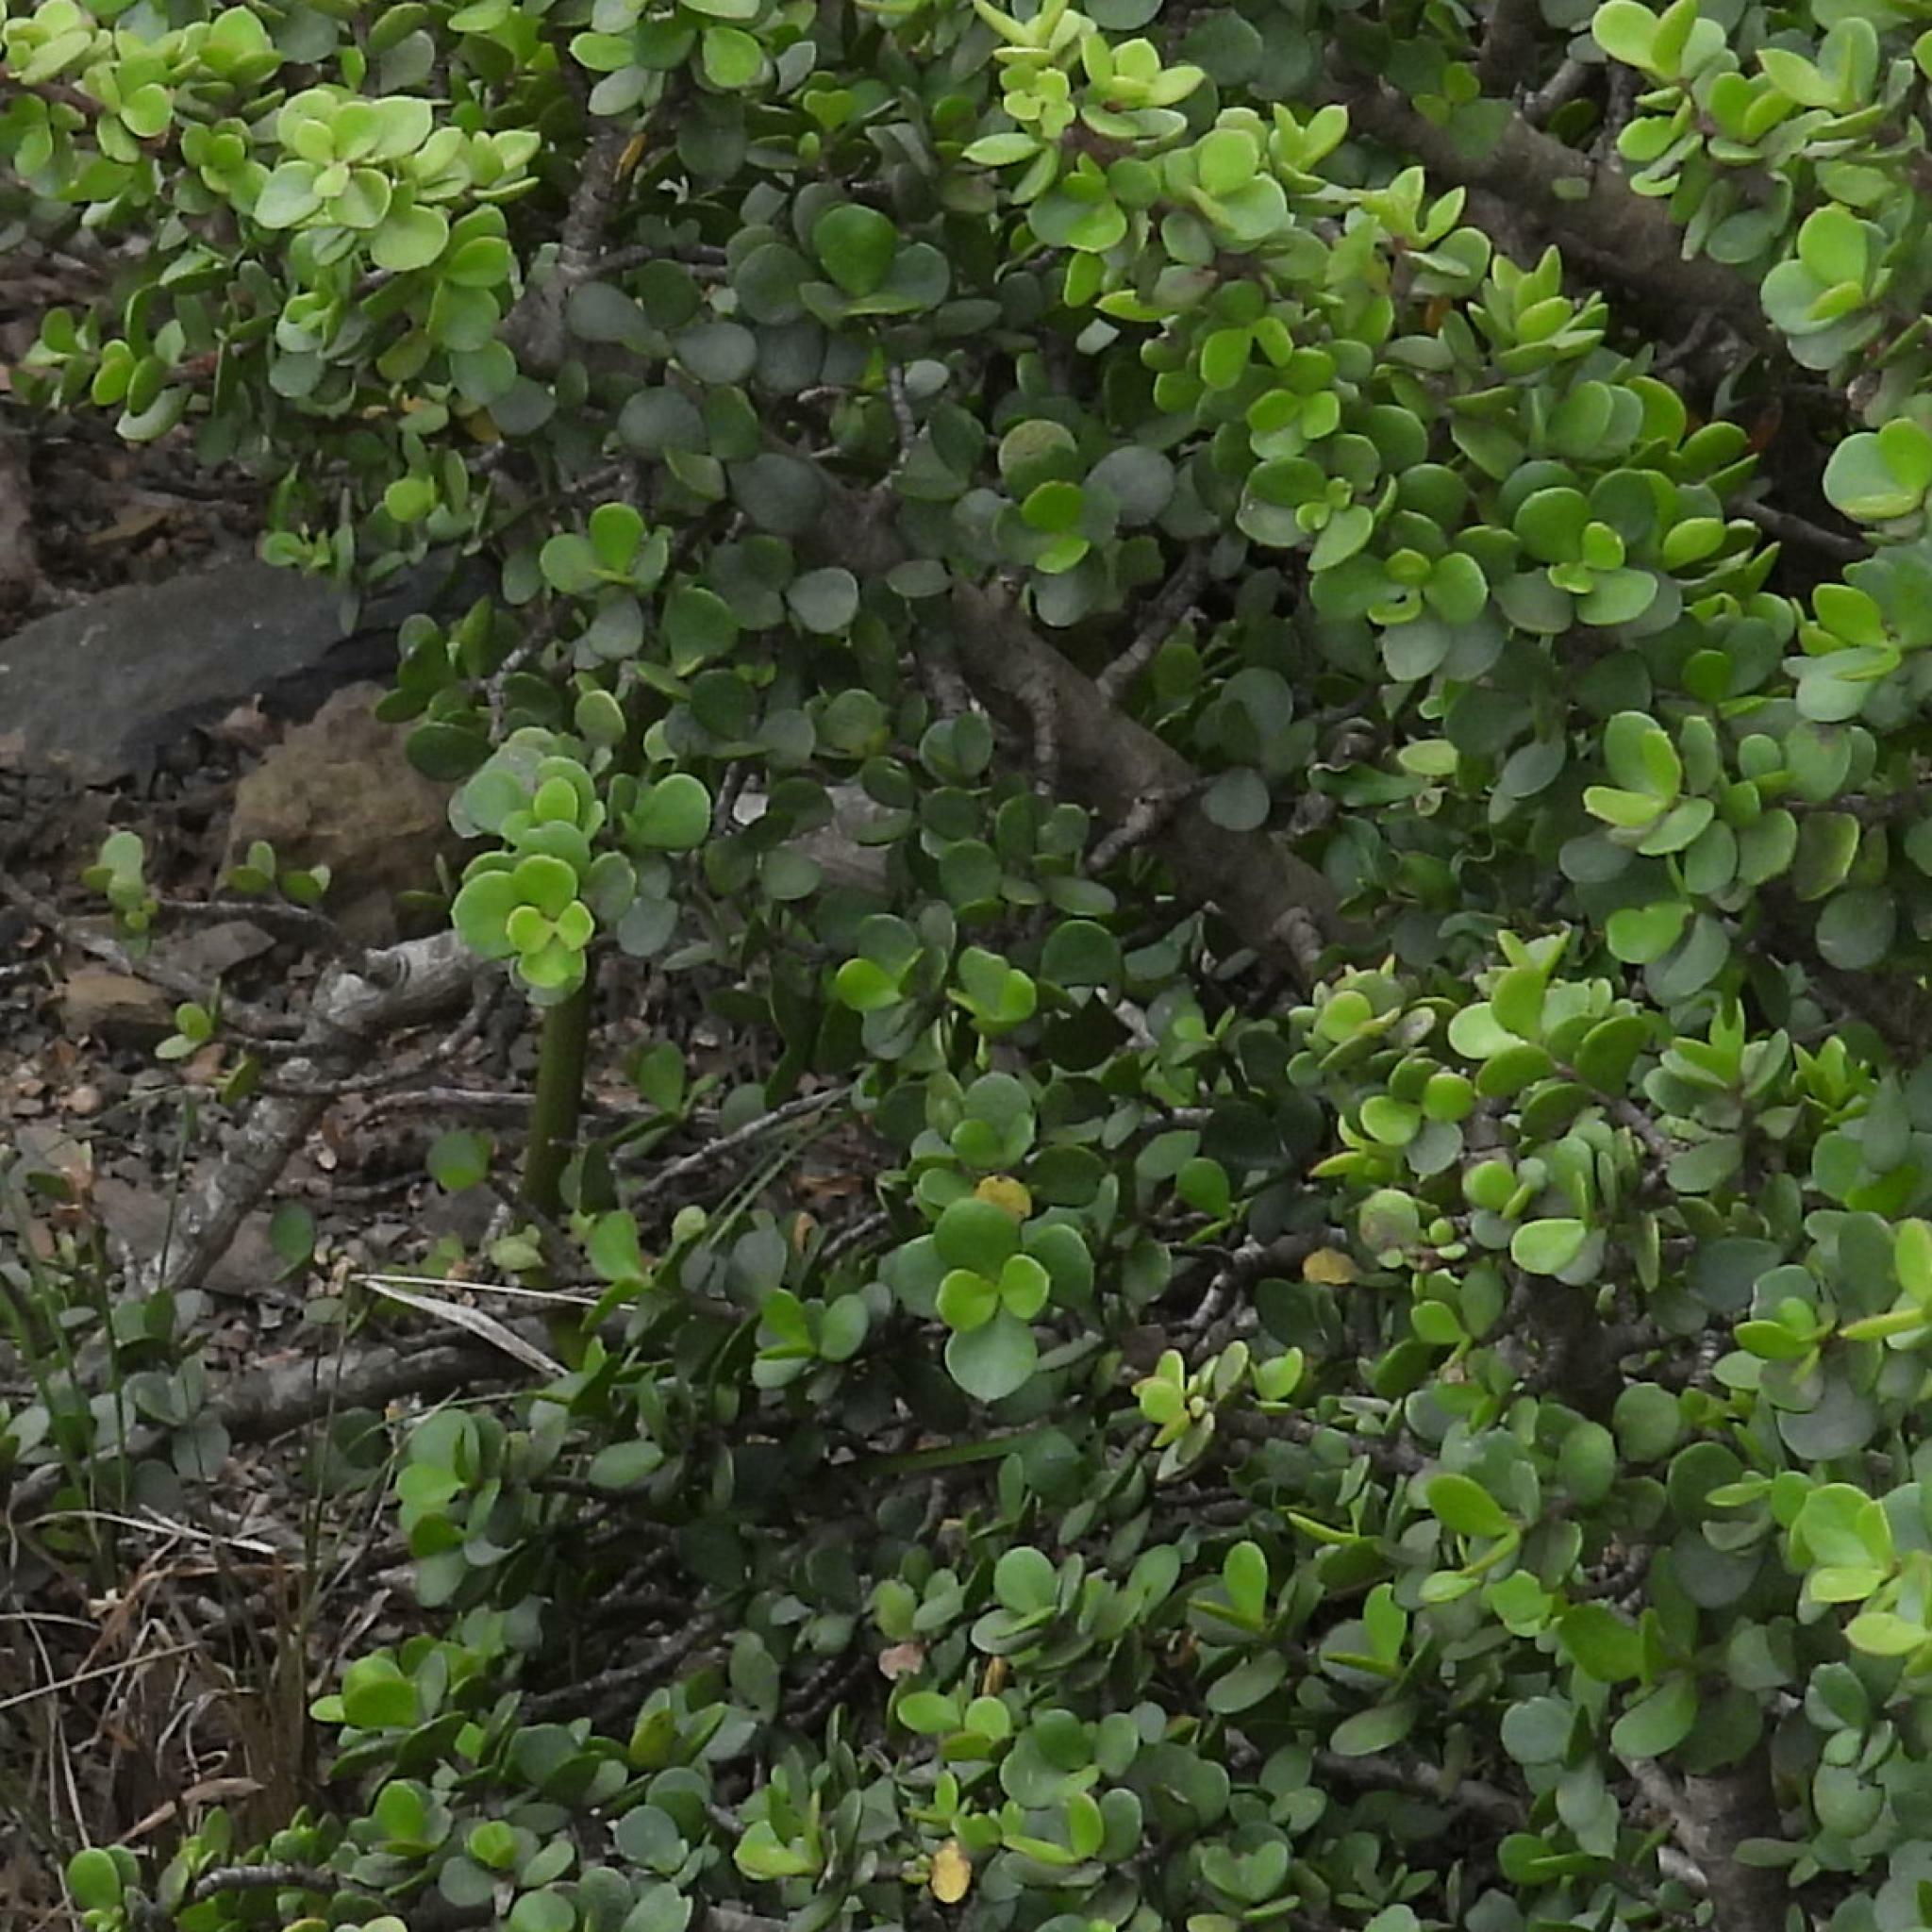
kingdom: Animalia
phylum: Chordata
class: Squamata
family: Colubridae
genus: Philothamnus
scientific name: Philothamnus semivariegatus
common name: Spotted bush snake
